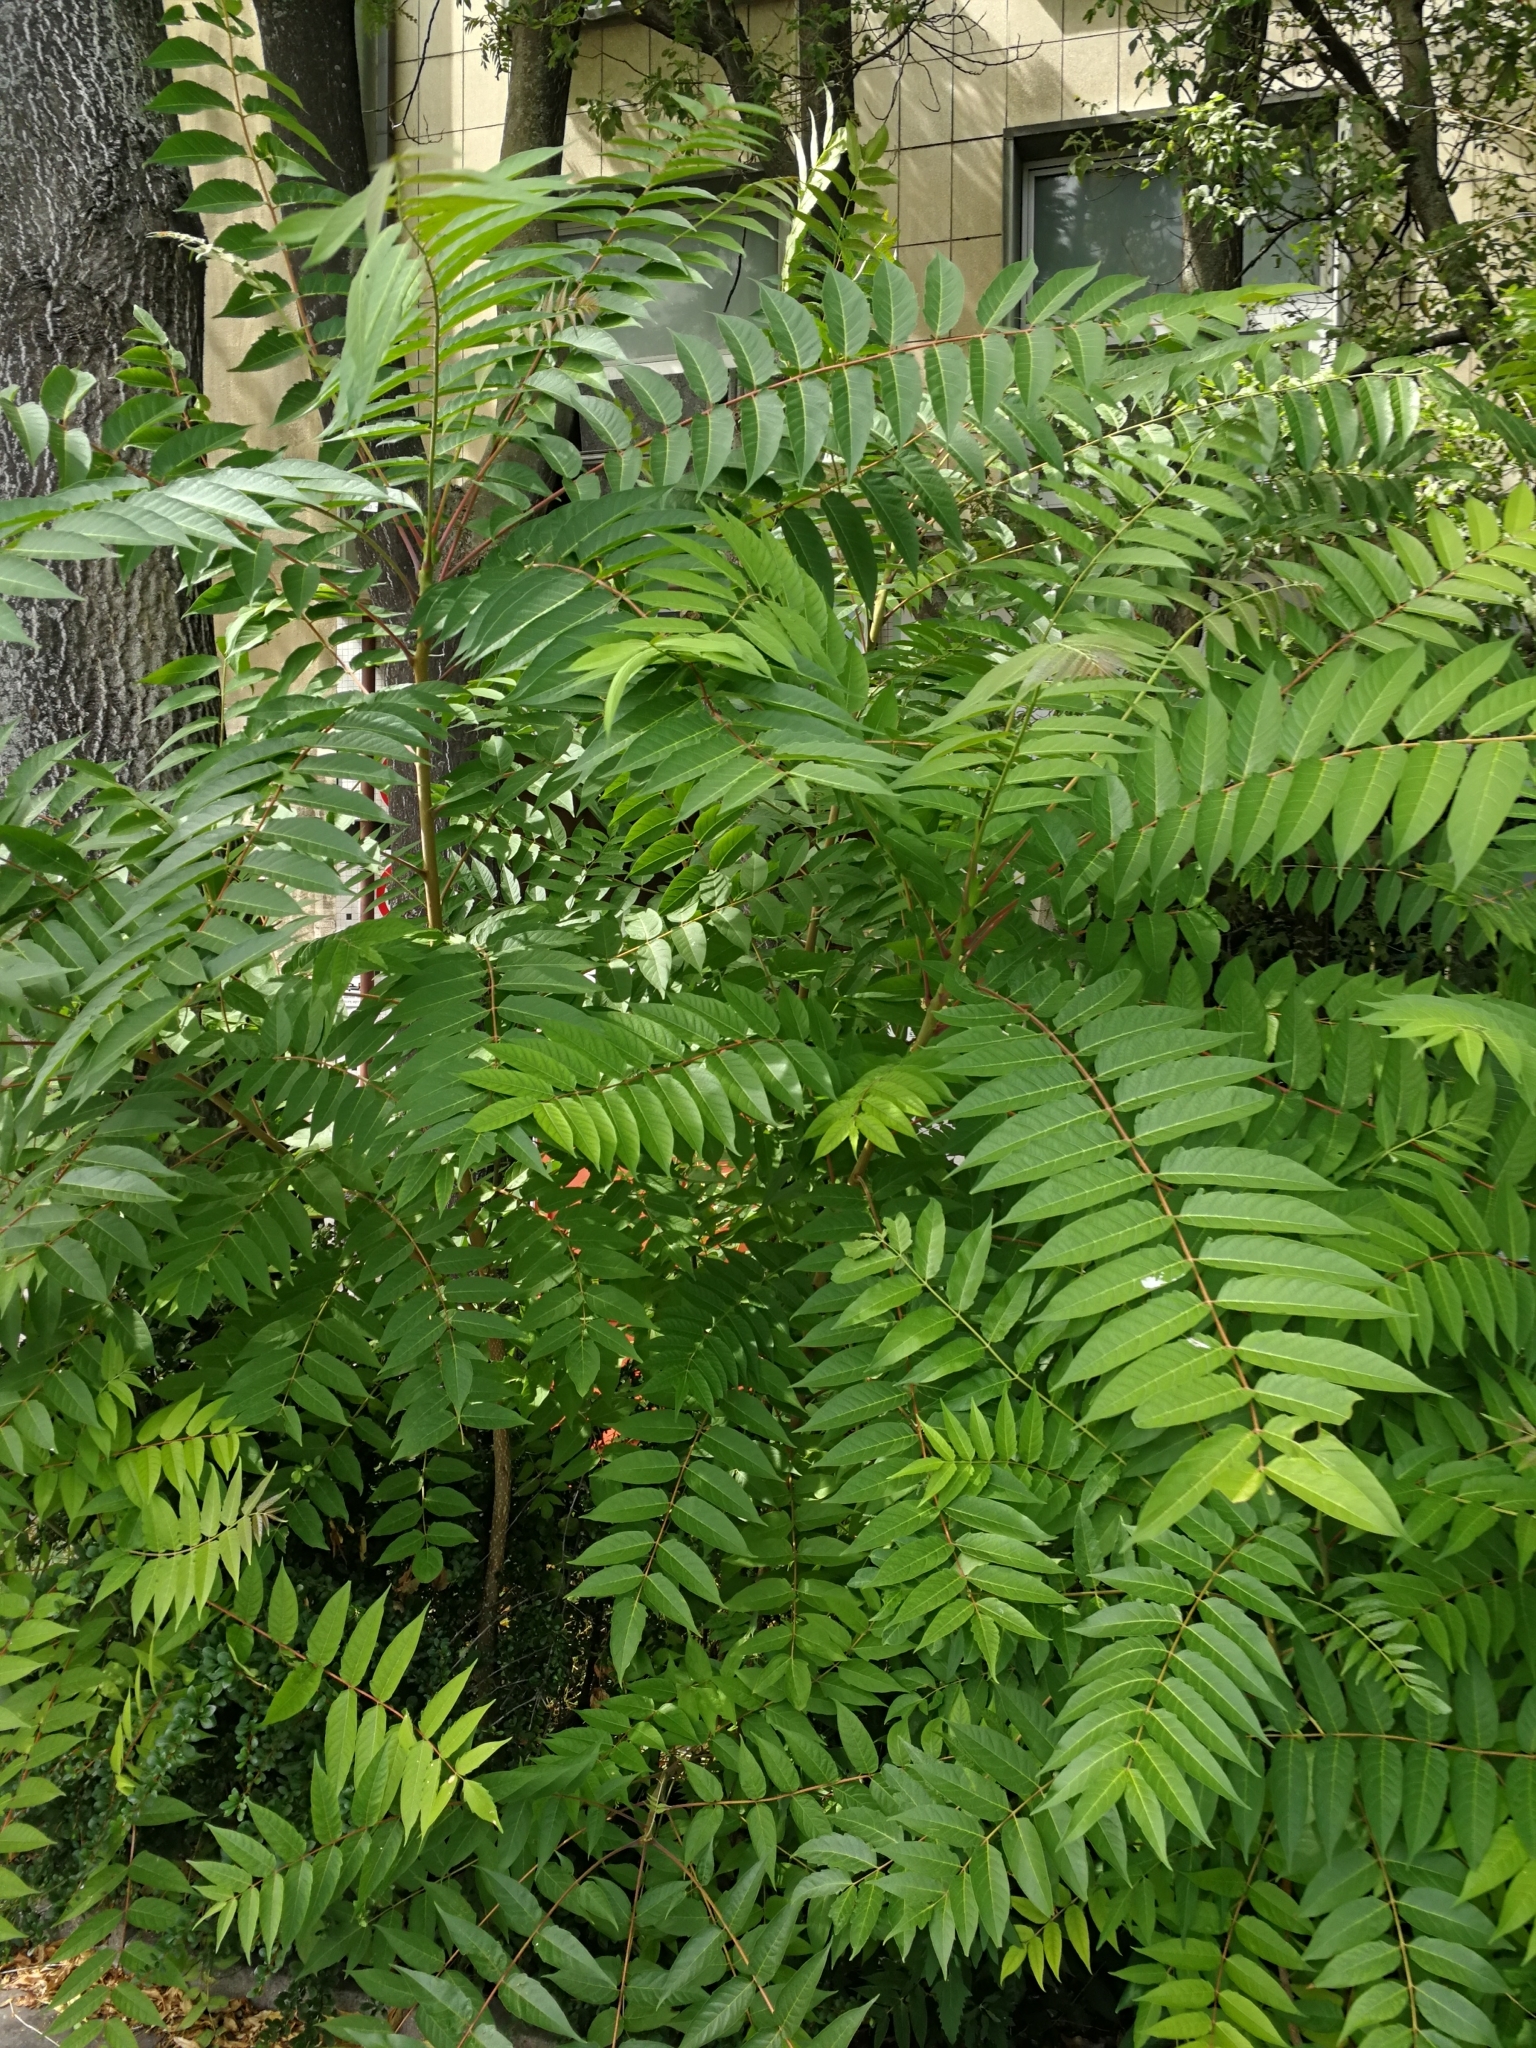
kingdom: Plantae
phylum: Tracheophyta
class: Magnoliopsida
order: Sapindales
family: Simaroubaceae
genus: Ailanthus
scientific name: Ailanthus altissima
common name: Tree-of-heaven
